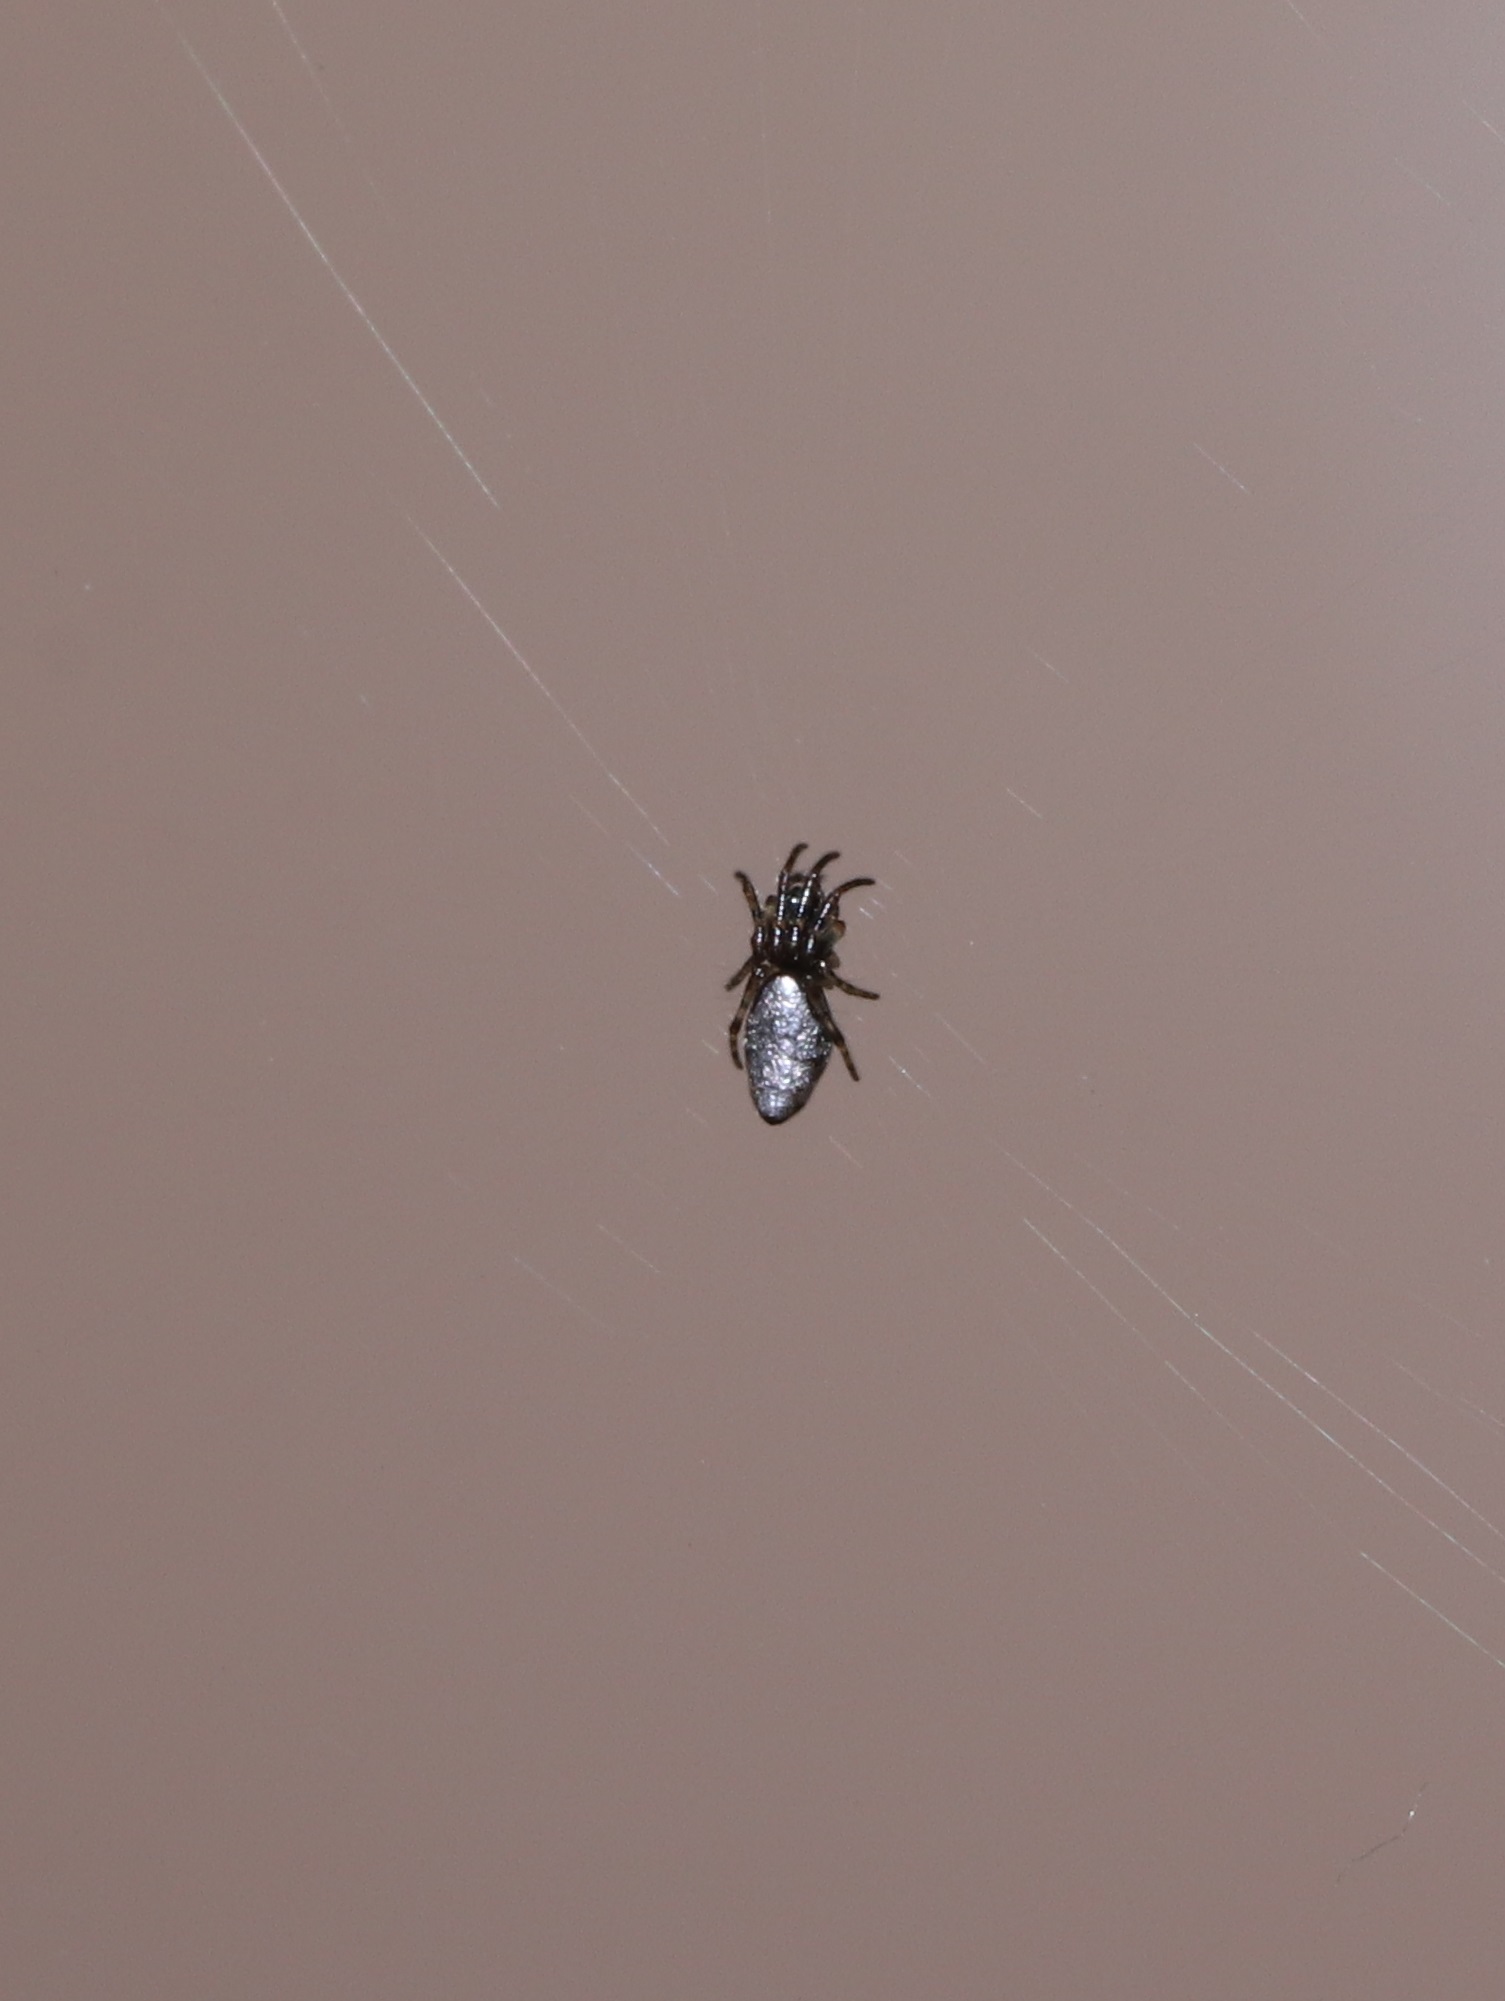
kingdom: Animalia
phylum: Arthropoda
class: Arachnida
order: Araneae
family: Araneidae
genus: Cyclosa
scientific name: Cyclosa argenteoalba
